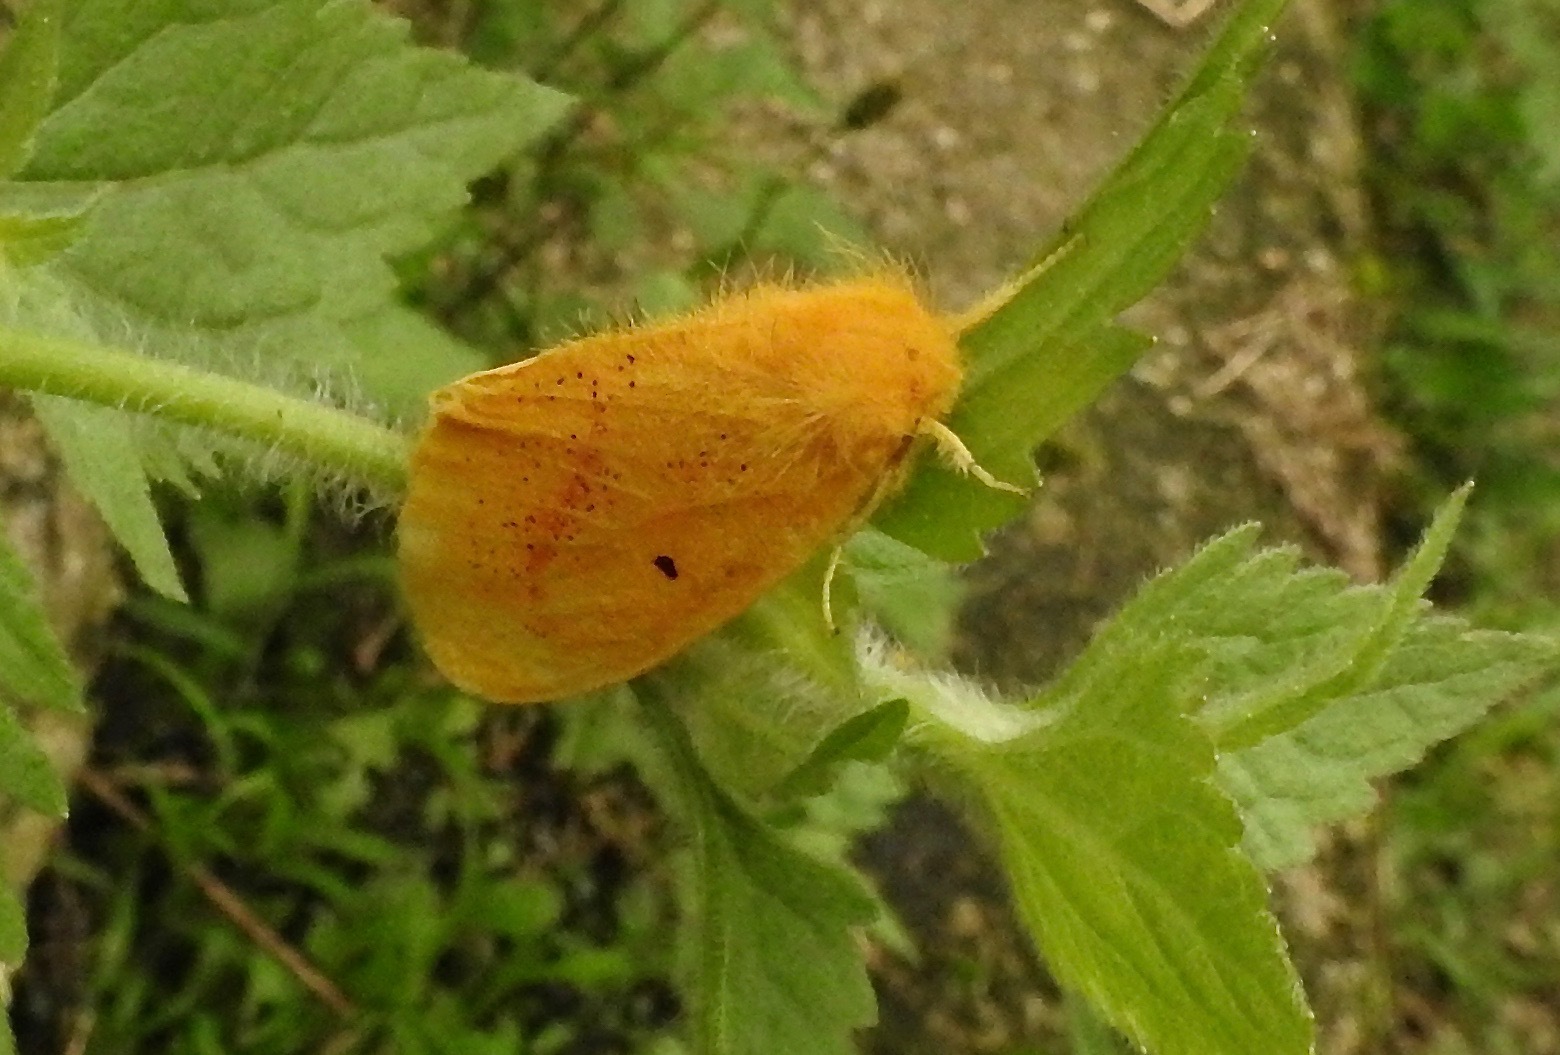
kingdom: Animalia
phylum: Arthropoda
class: Insecta
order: Lepidoptera
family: Erebidae
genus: Nygmia
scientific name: Nygmia plana
